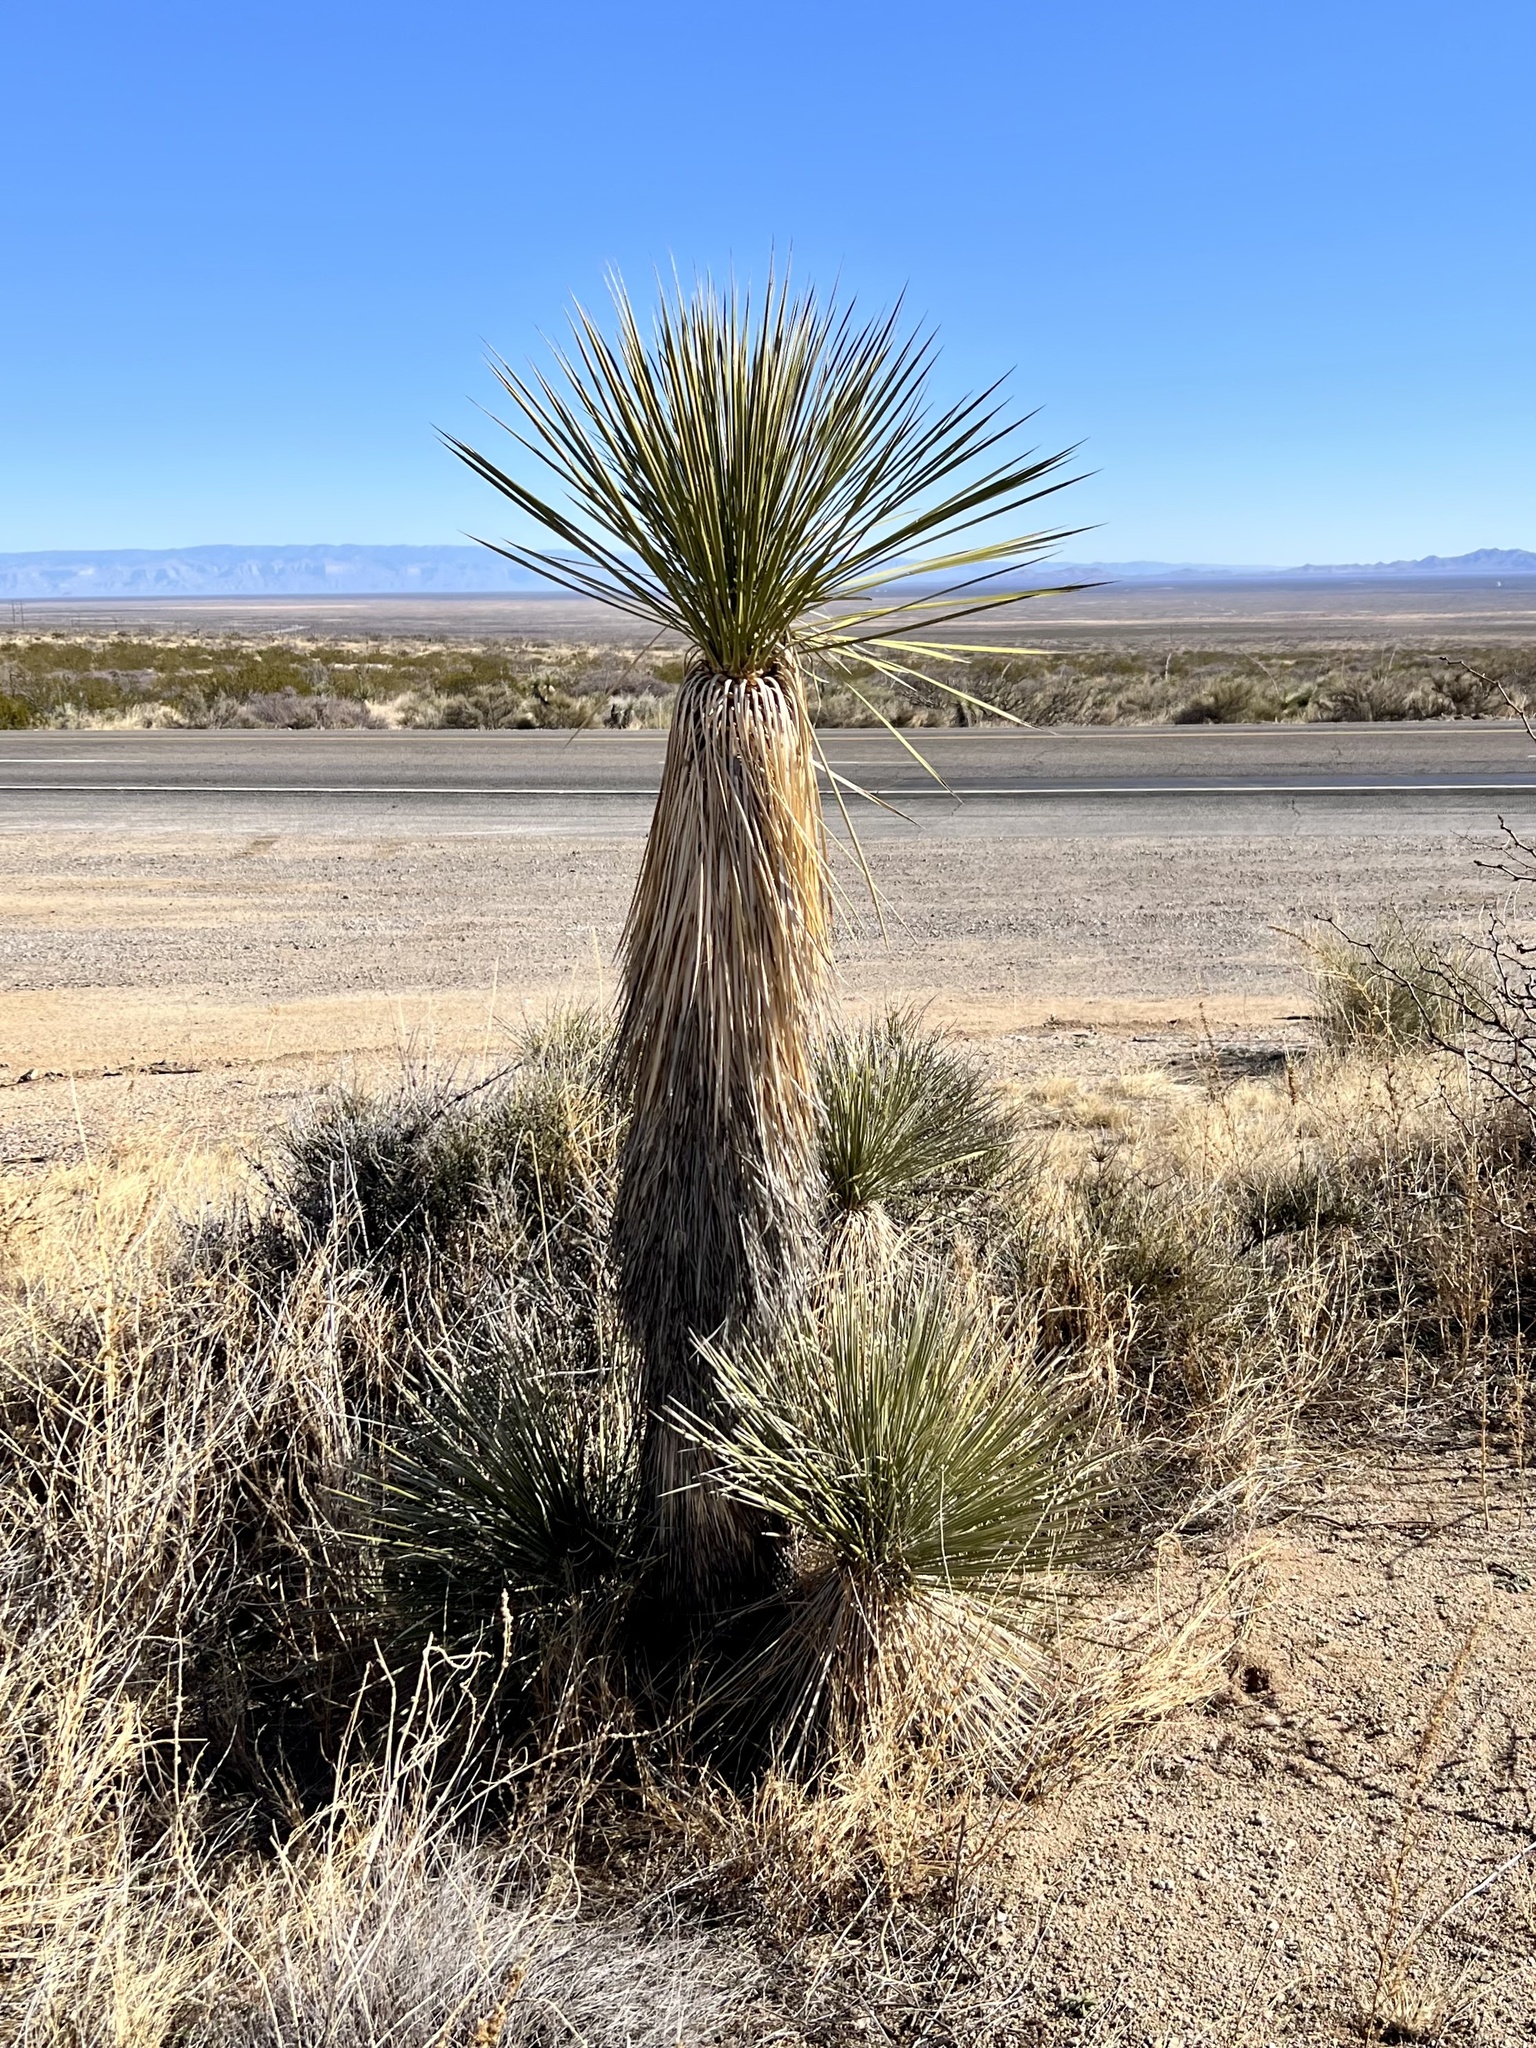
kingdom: Plantae
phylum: Tracheophyta
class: Liliopsida
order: Asparagales
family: Asparagaceae
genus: Yucca
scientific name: Yucca elata
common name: Palmella
